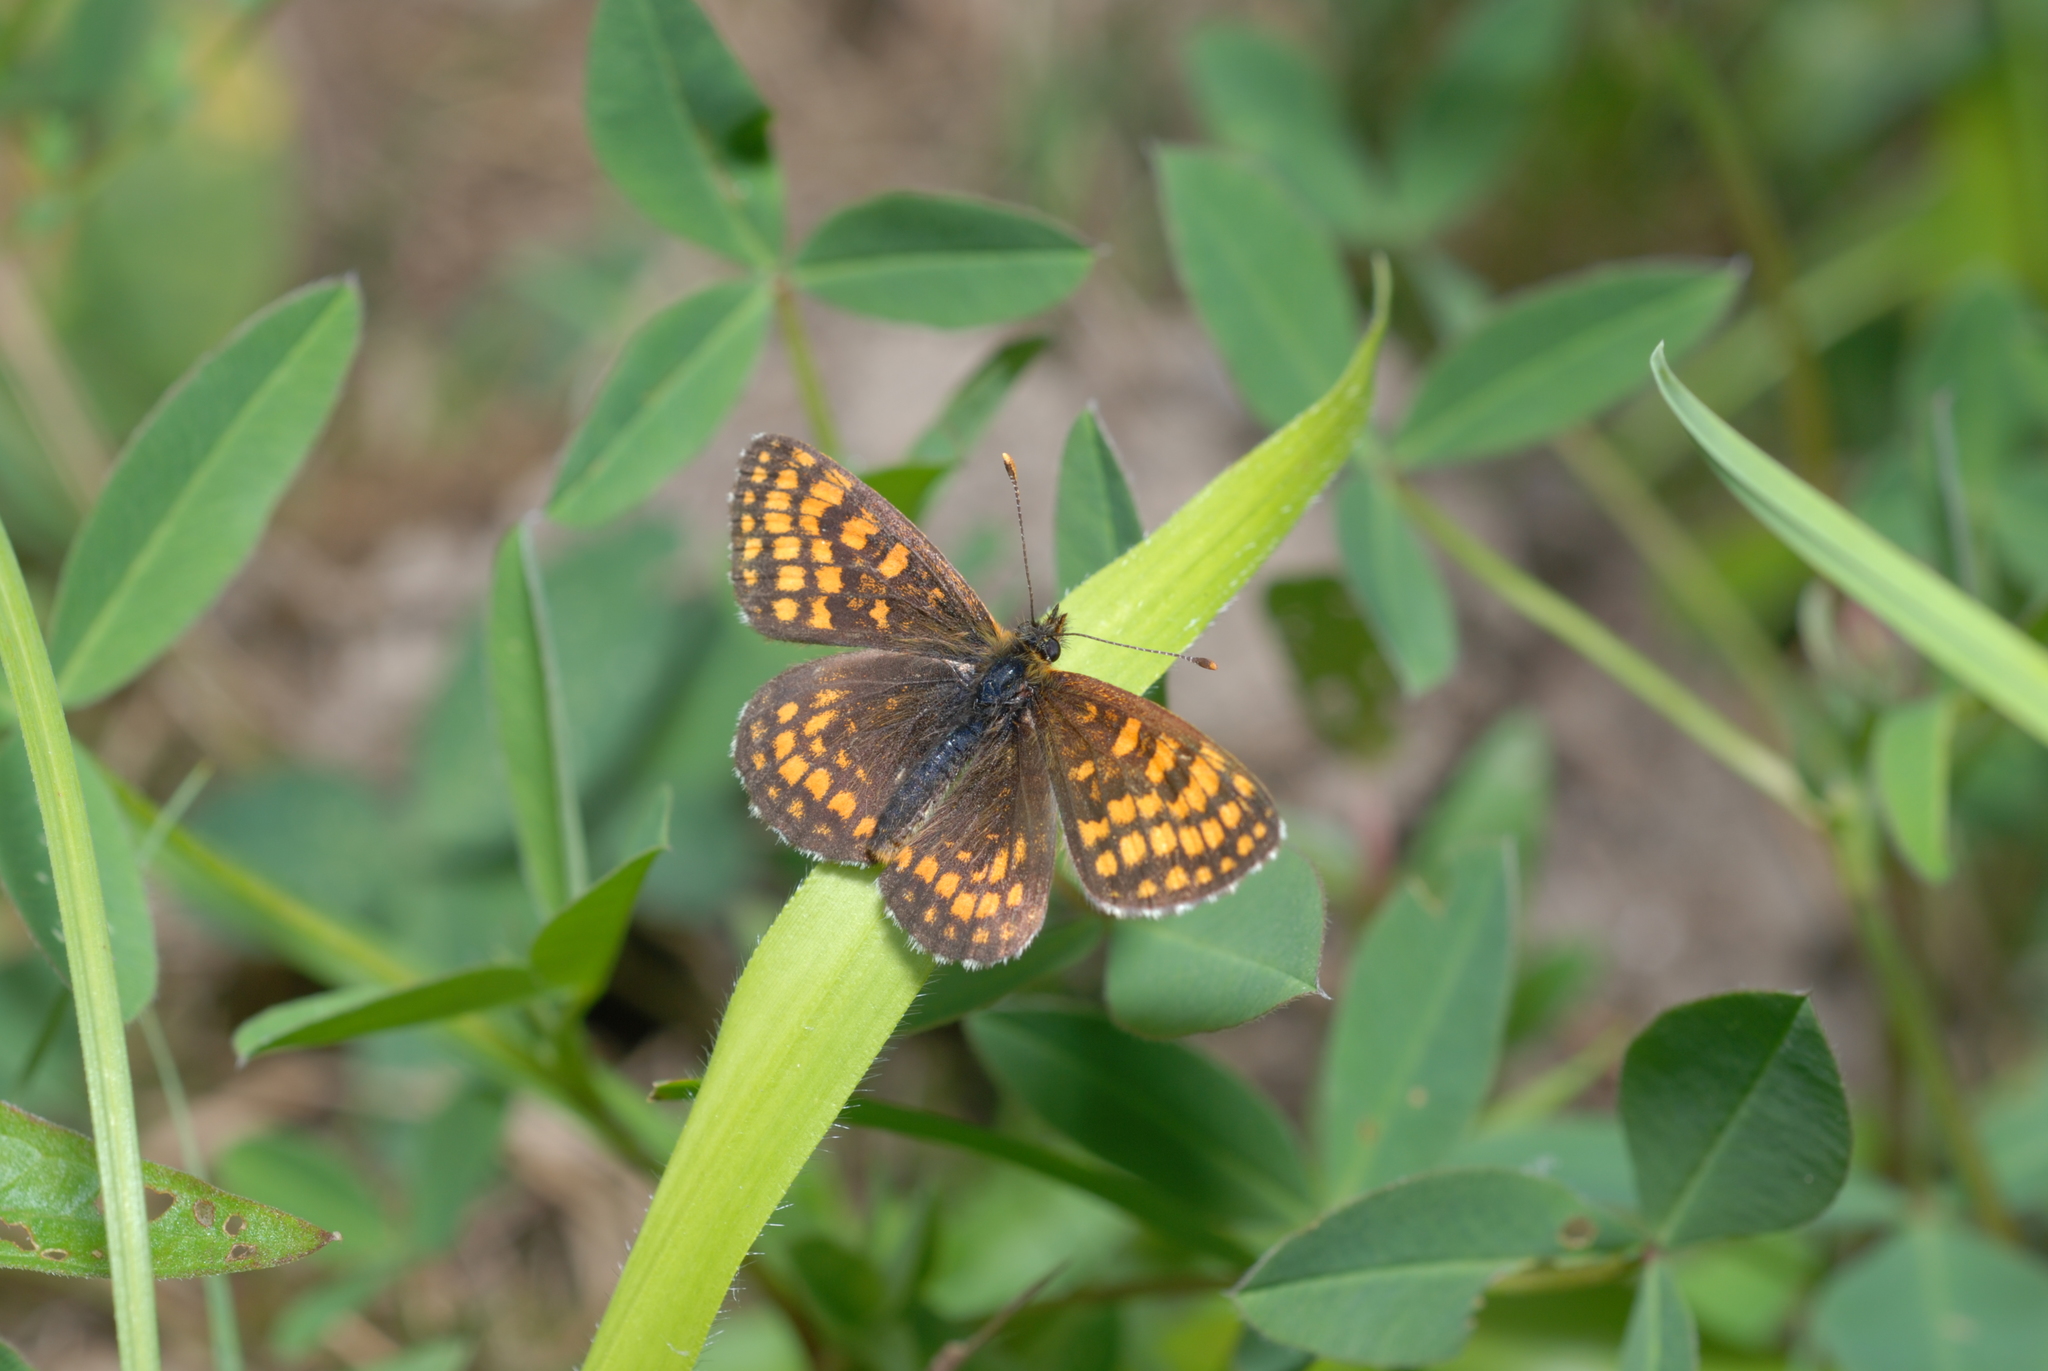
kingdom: Animalia
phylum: Arthropoda
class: Insecta
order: Lepidoptera
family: Nymphalidae
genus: Melitaea
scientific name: Melitaea athalia
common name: Heath fritillary
